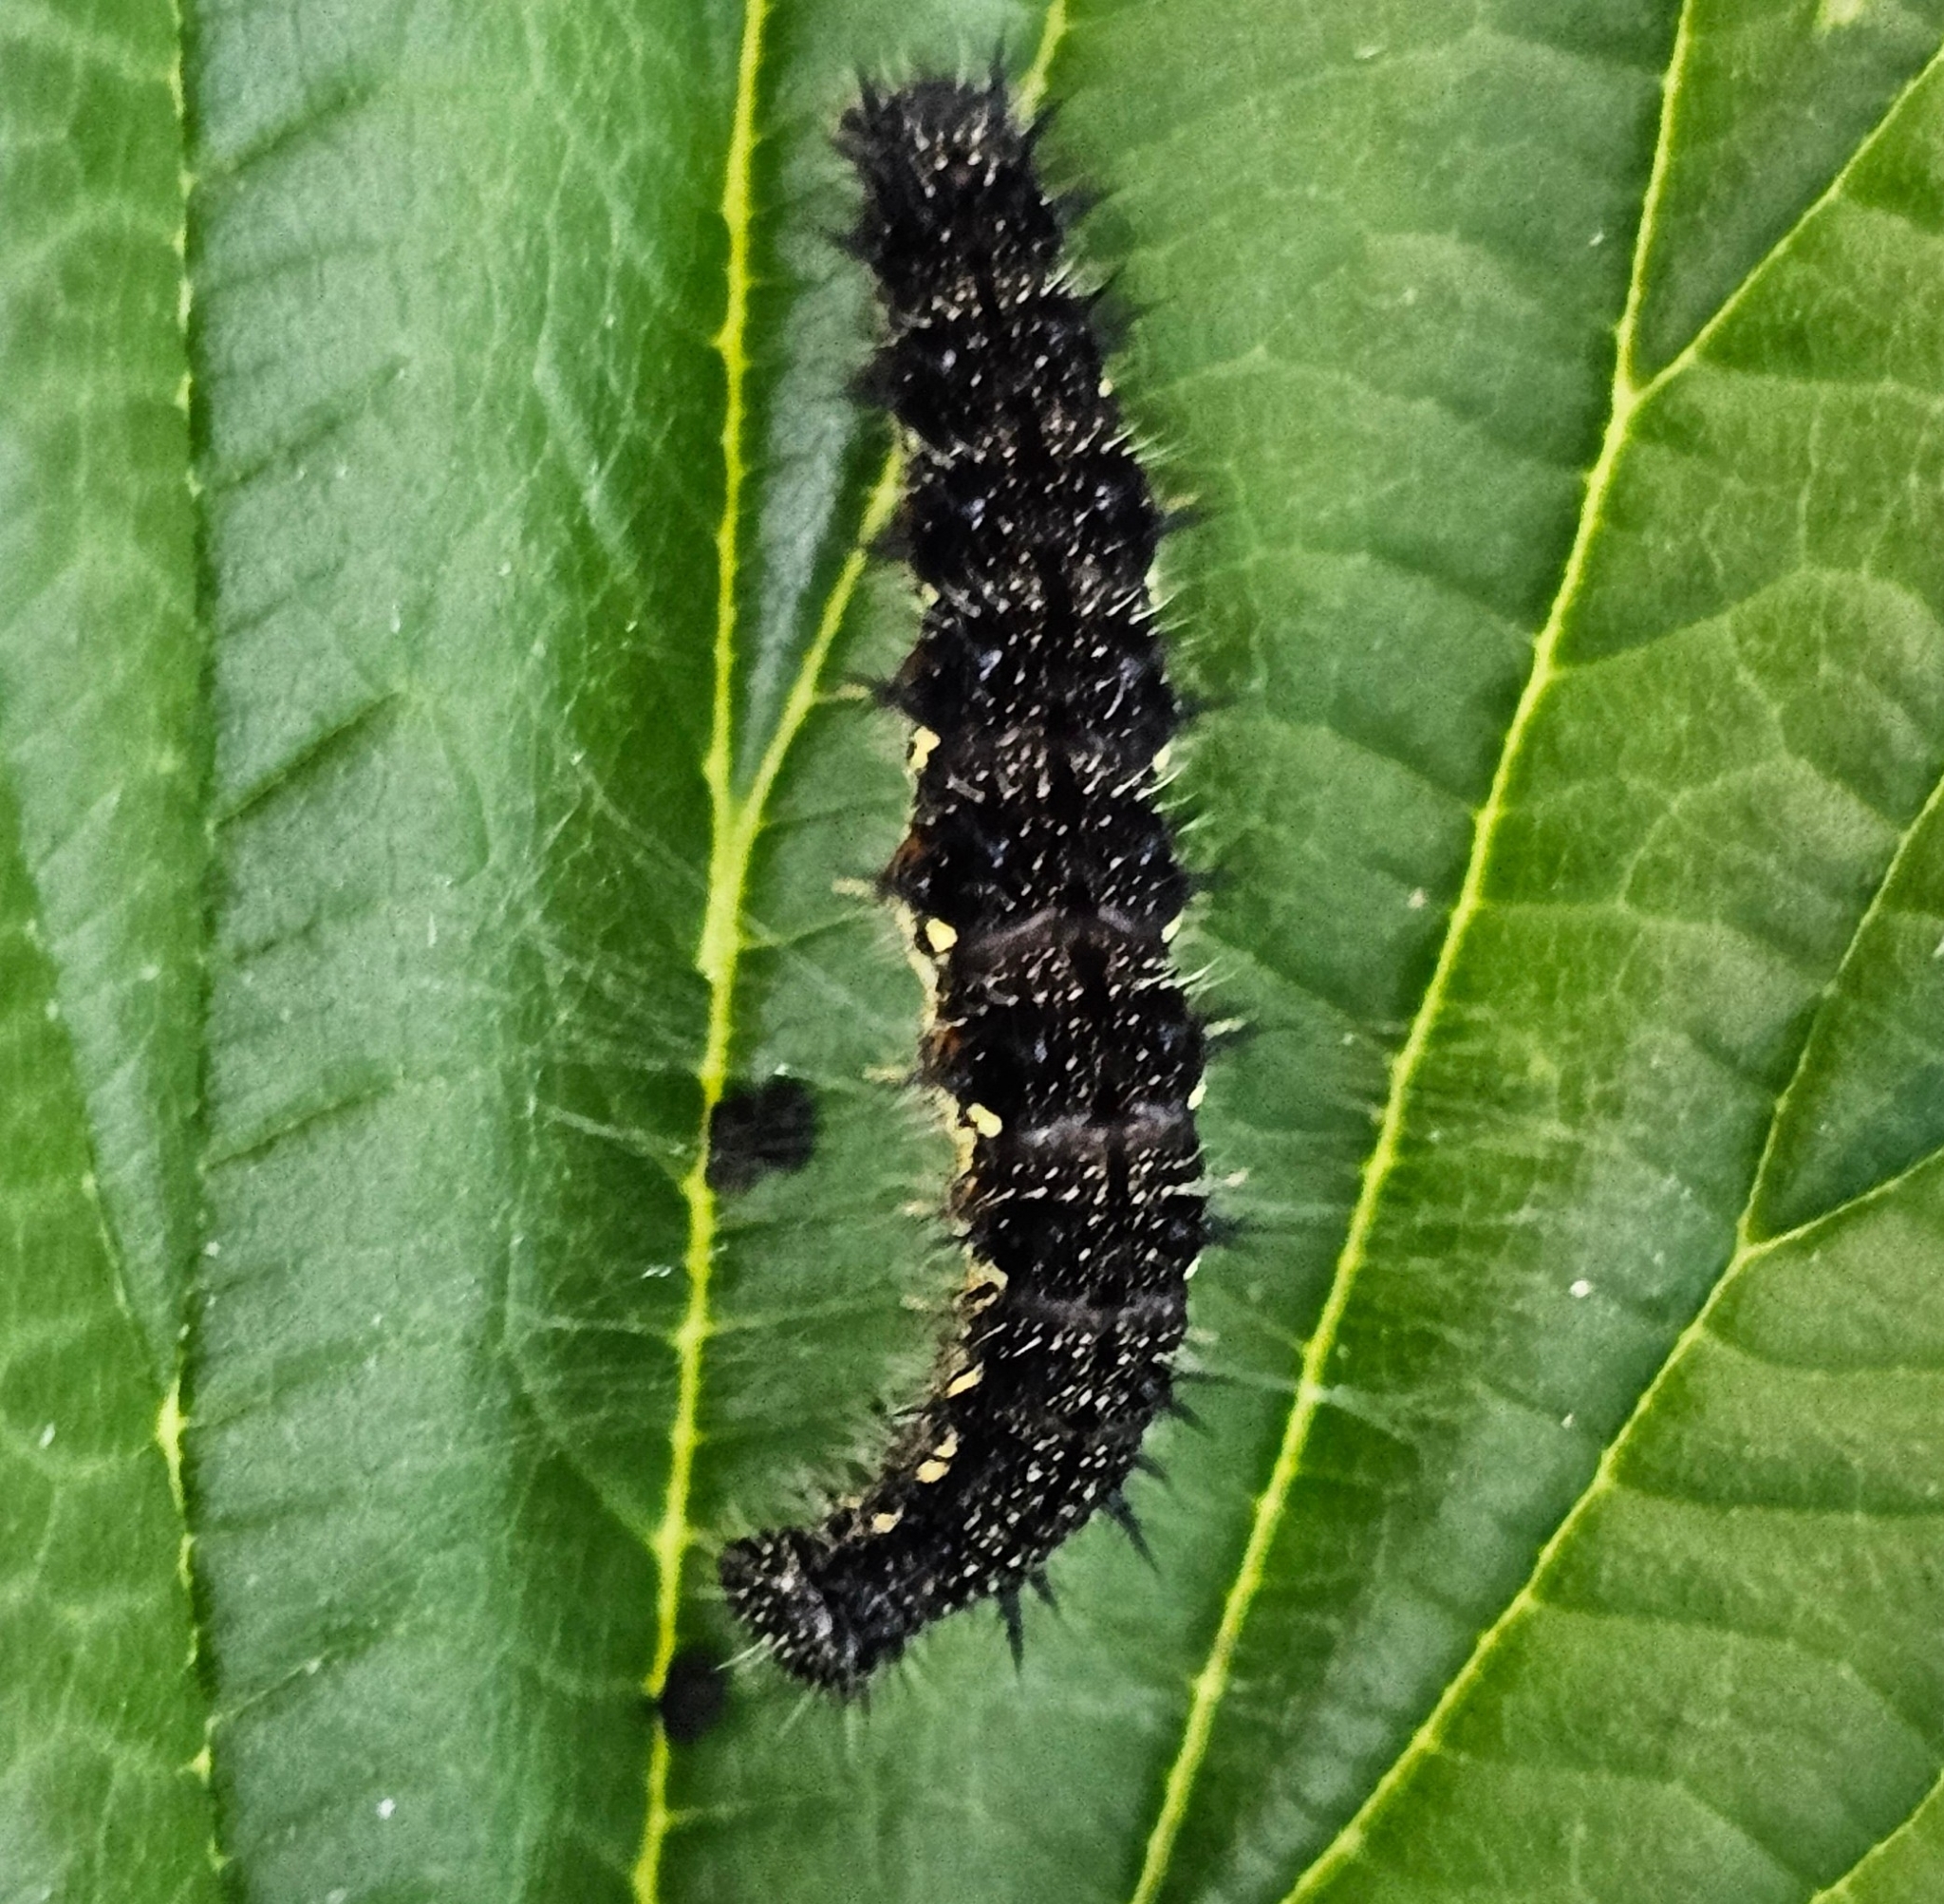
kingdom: Animalia
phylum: Arthropoda
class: Insecta
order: Lepidoptera
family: Nymphalidae
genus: Aglais
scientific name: Aglais milberti
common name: Milbert's tortoiseshell
